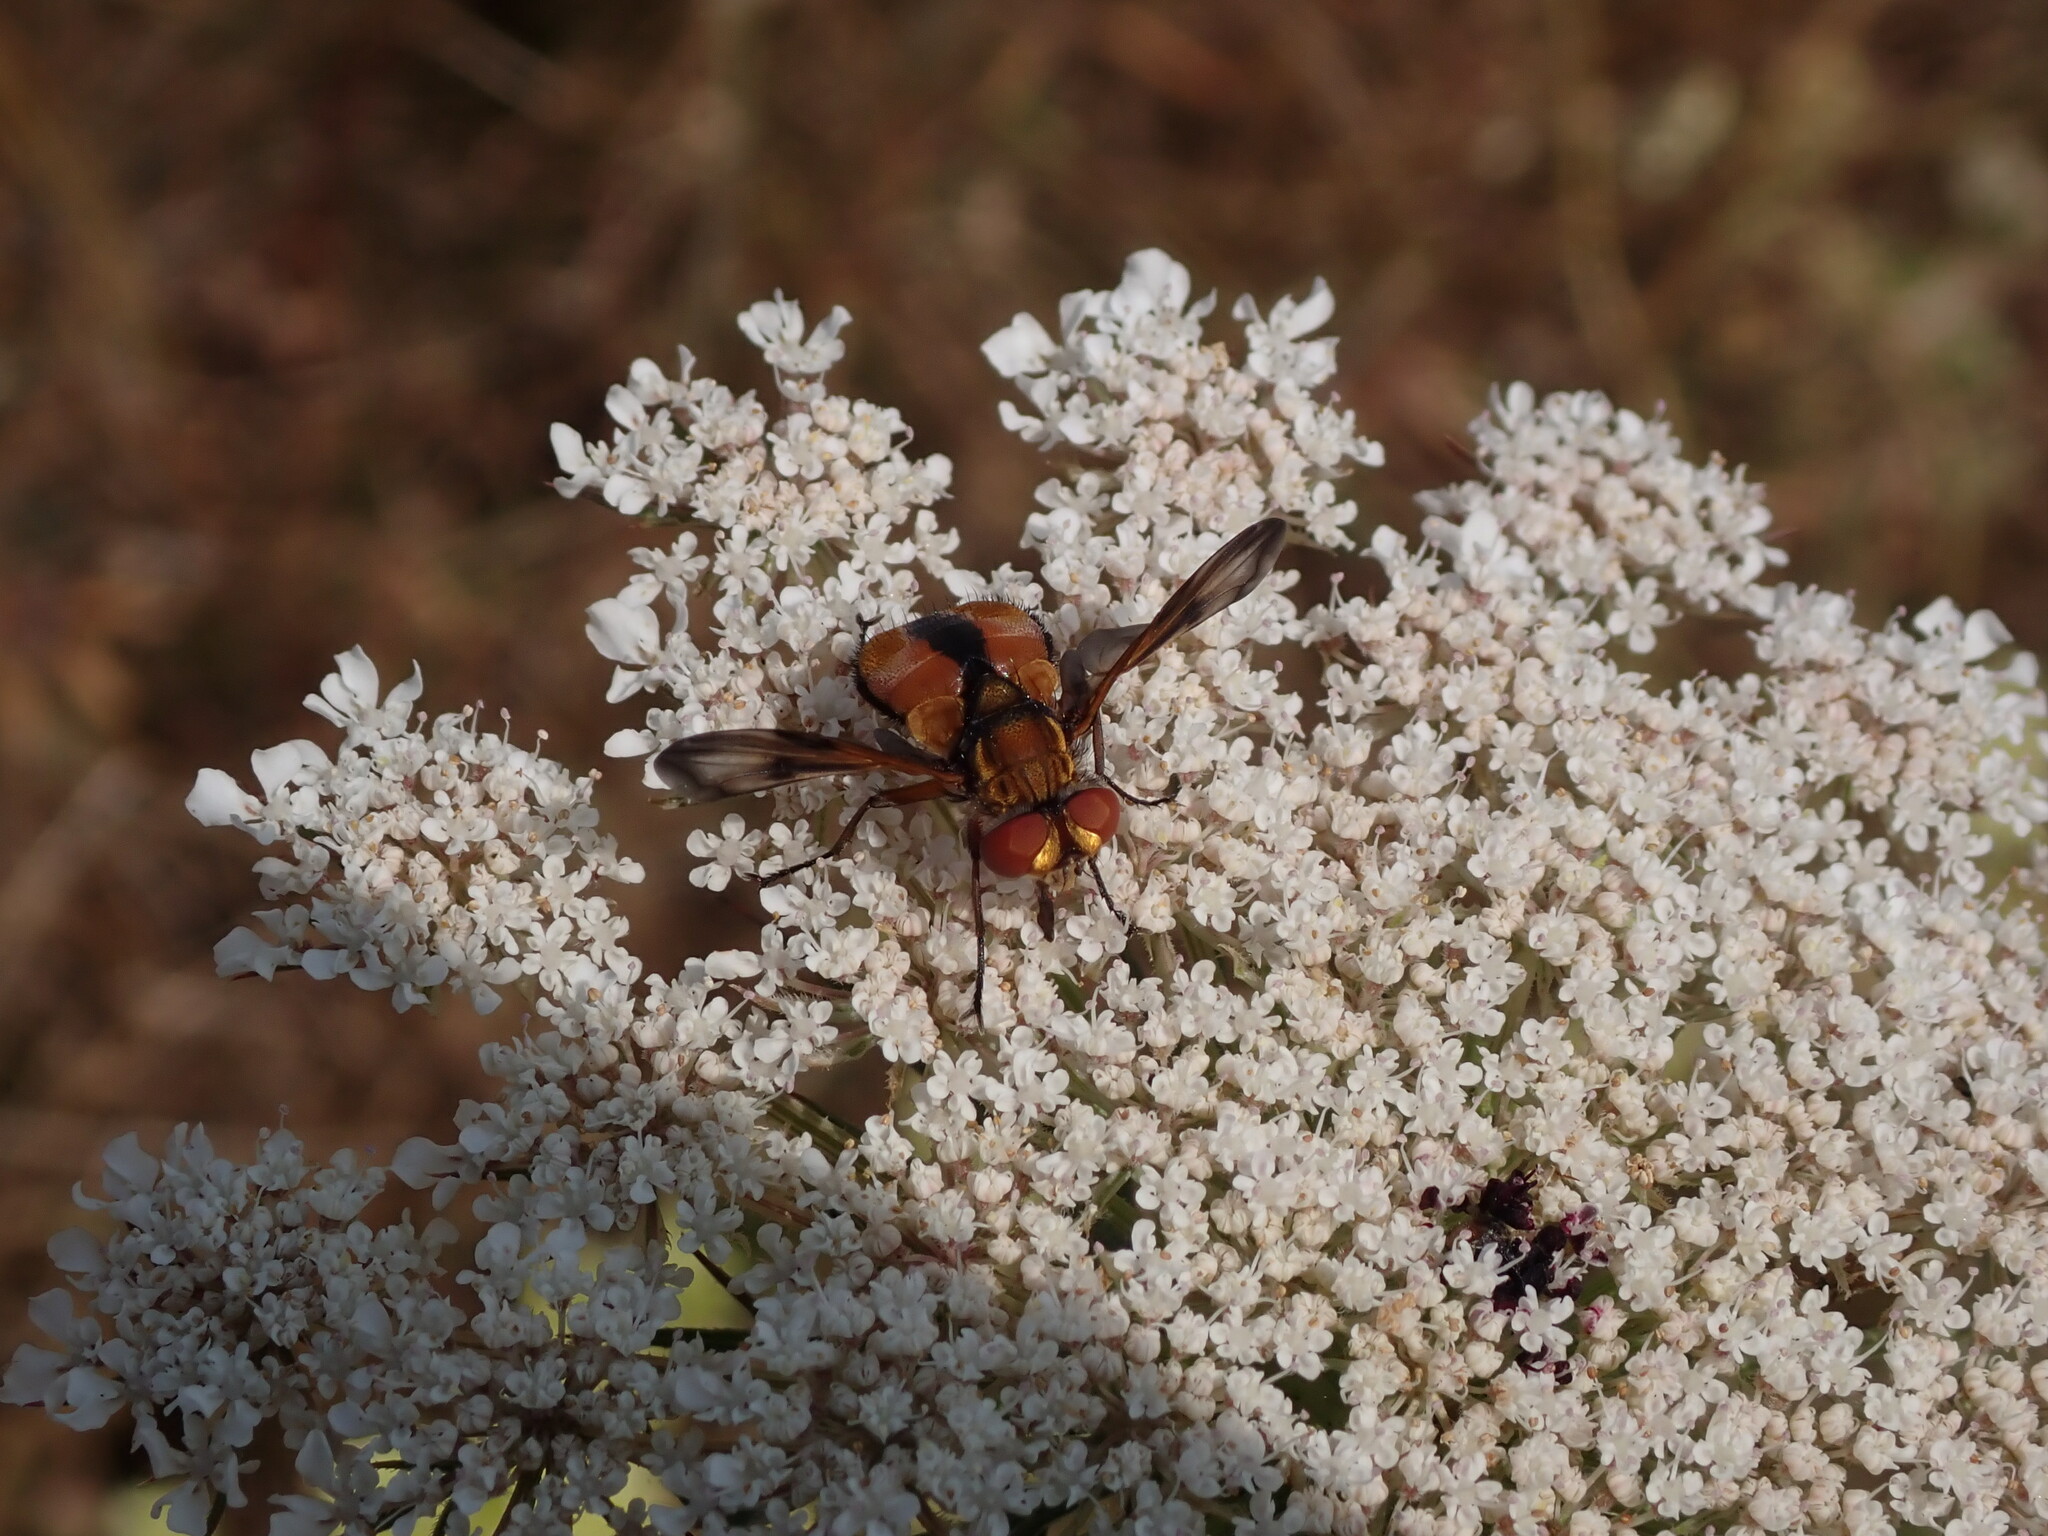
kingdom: Animalia
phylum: Arthropoda
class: Insecta
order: Diptera
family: Tachinidae
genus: Ectophasia
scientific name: Ectophasia crassipennis
